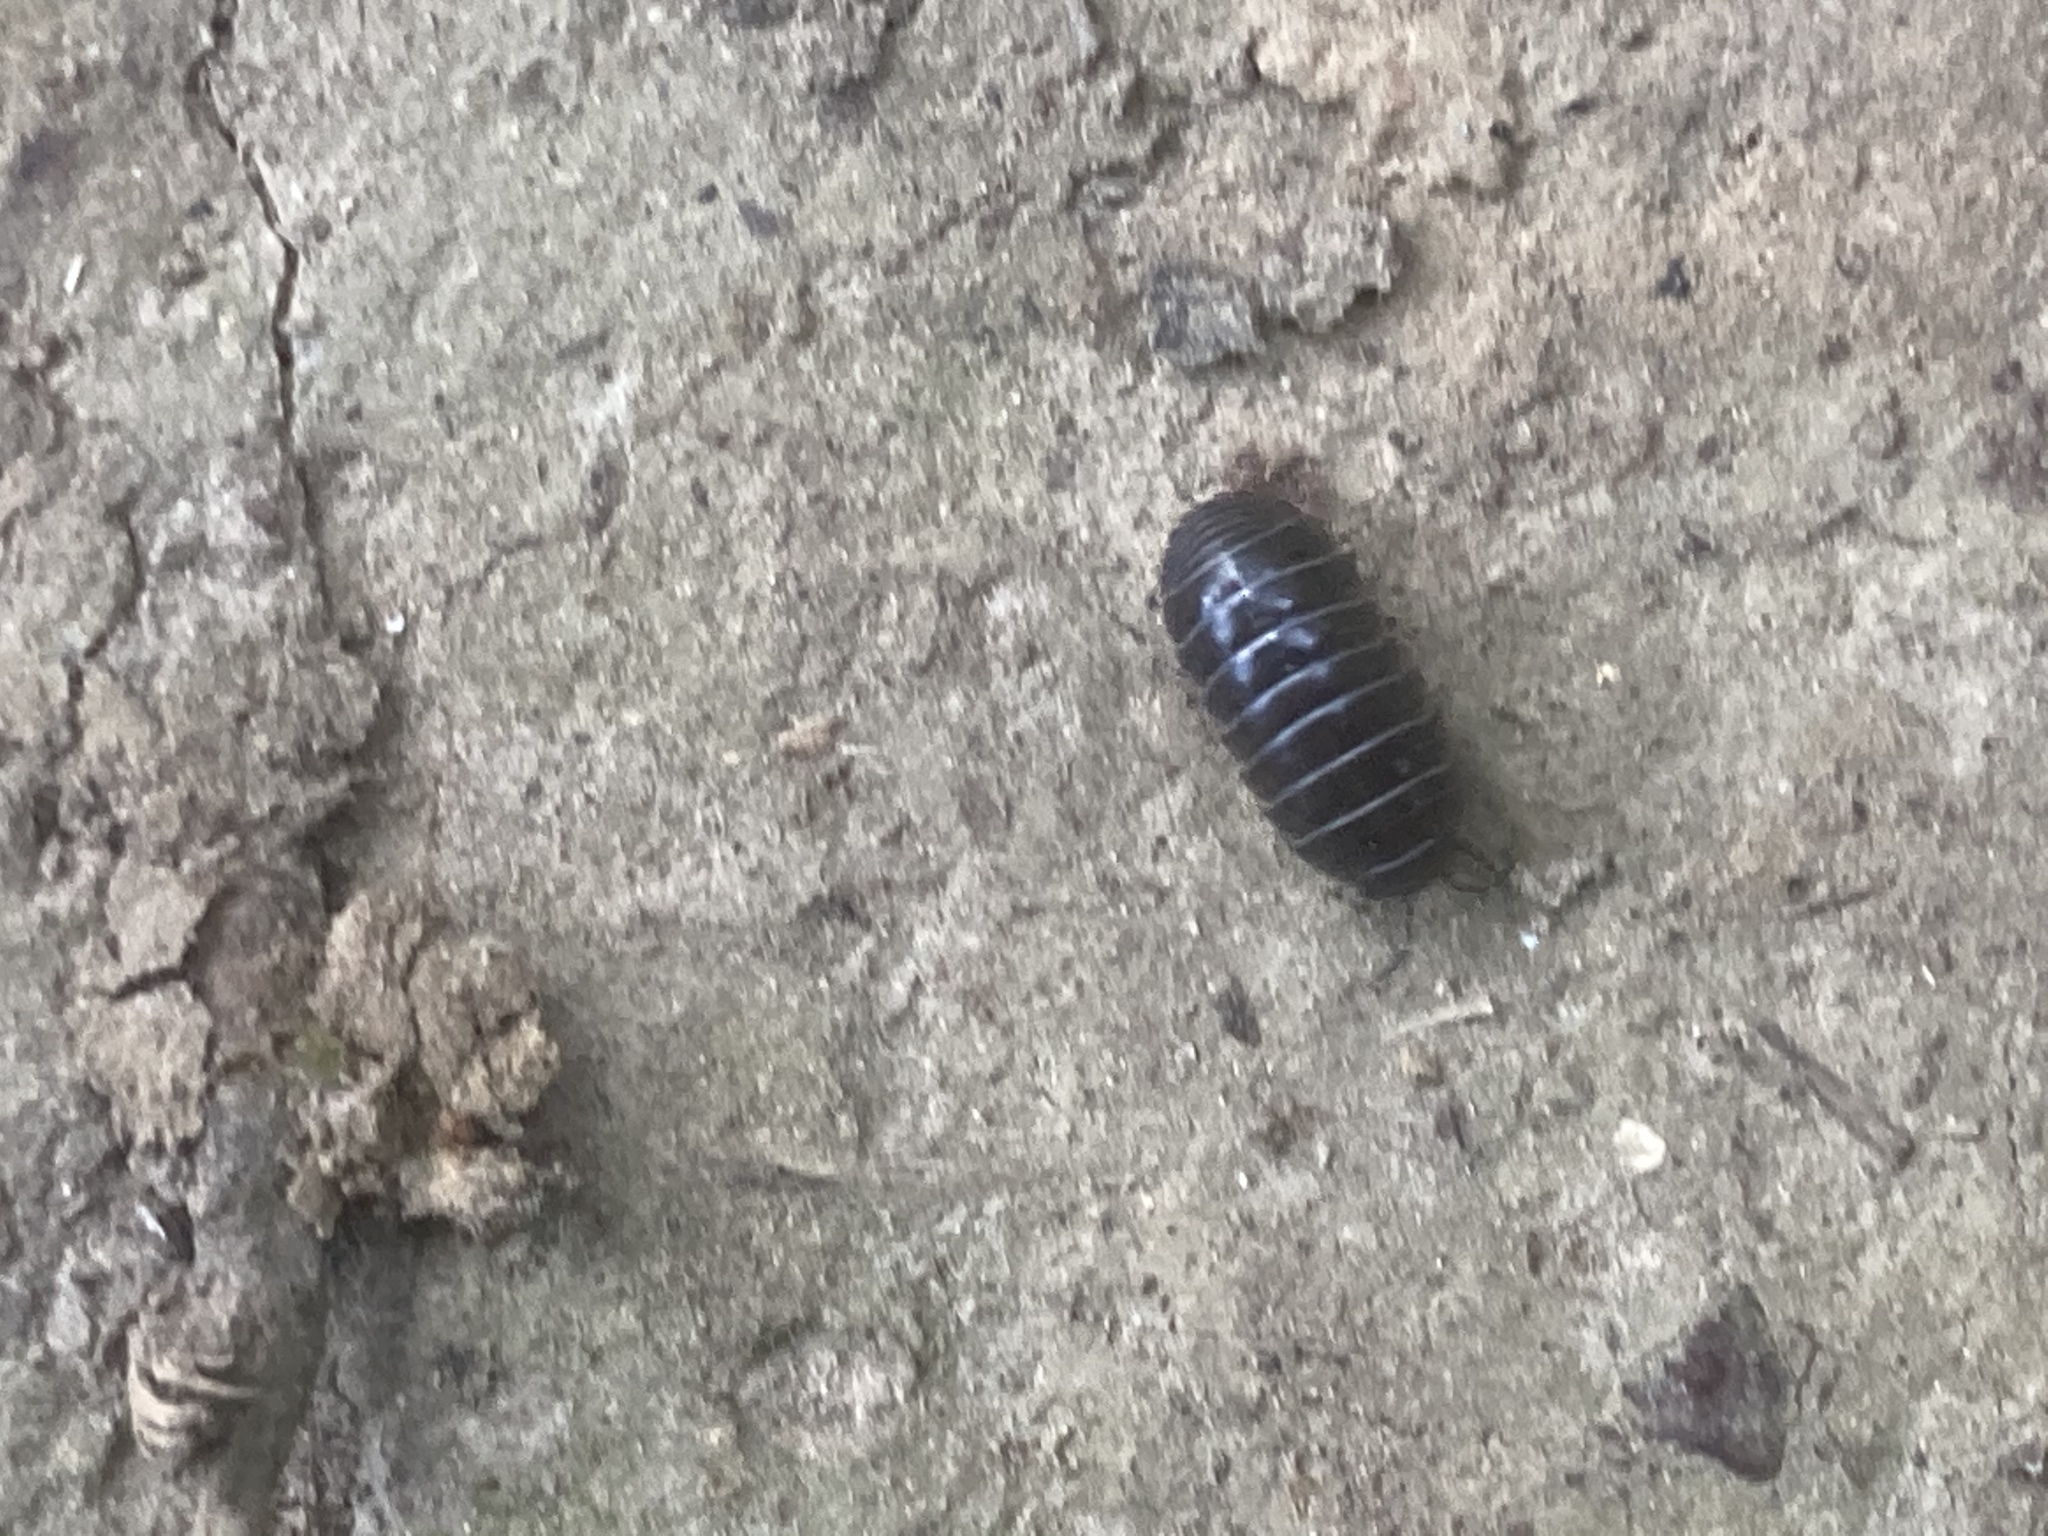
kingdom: Animalia
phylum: Arthropoda
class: Malacostraca
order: Isopoda
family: Armadillidiidae
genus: Armadillidium
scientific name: Armadillidium vulgare
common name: Common pill woodlouse
